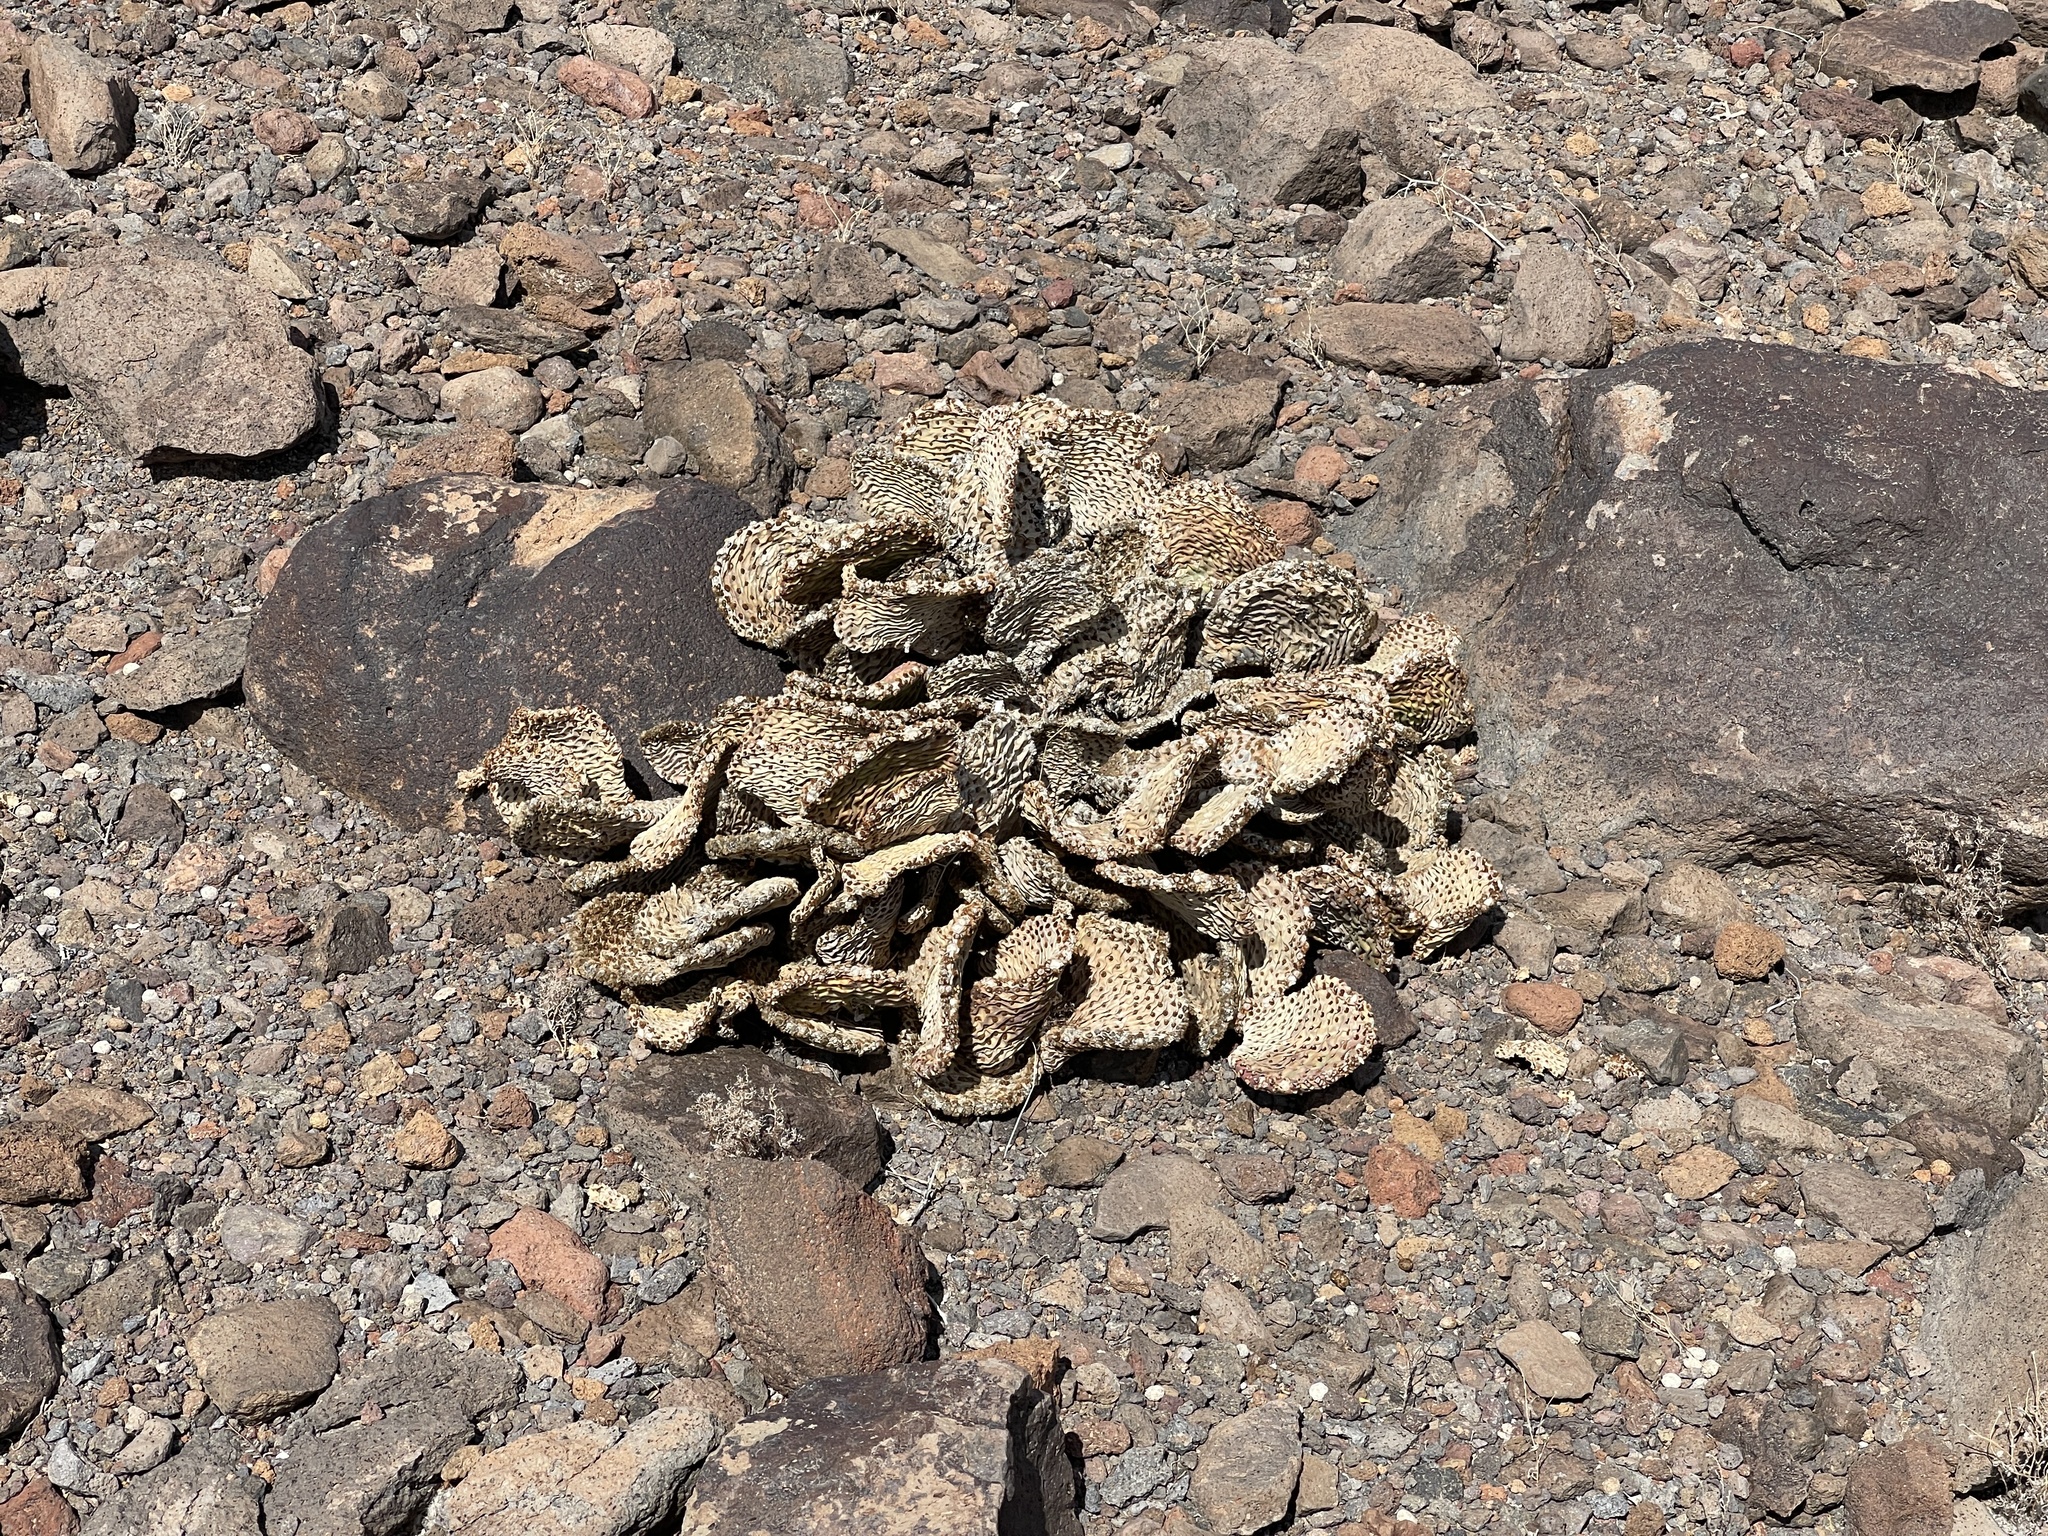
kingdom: Plantae
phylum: Tracheophyta
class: Magnoliopsida
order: Caryophyllales
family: Cactaceae
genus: Opuntia
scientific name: Opuntia basilaris
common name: Beavertail prickly-pear
